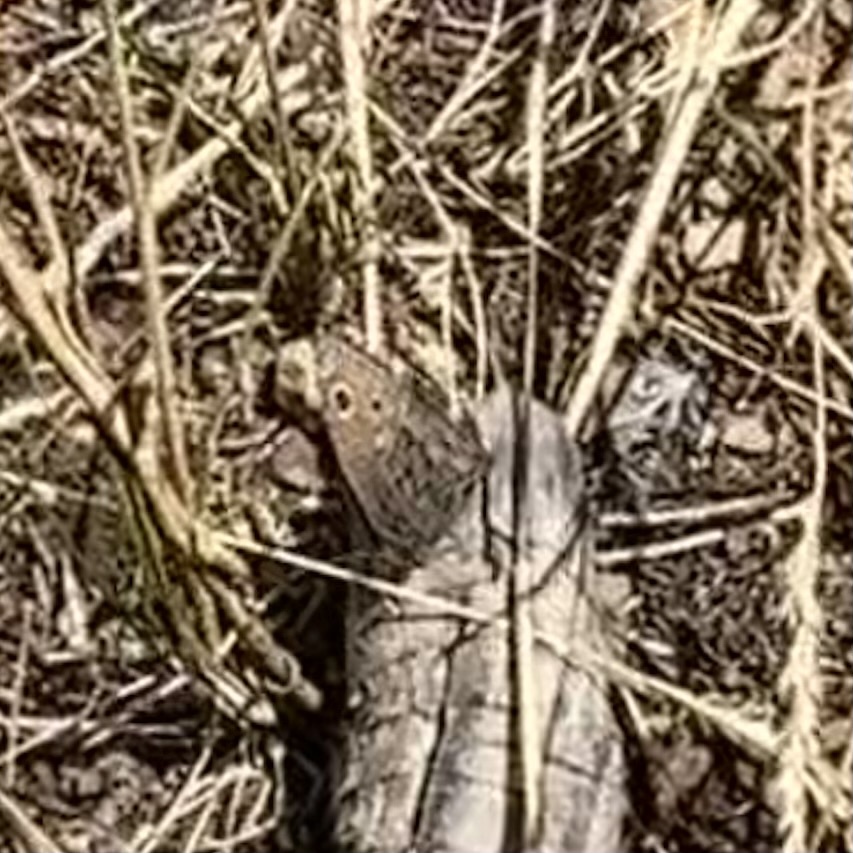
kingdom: Animalia
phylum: Arthropoda
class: Insecta
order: Lepidoptera
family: Nymphalidae
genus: Cercyonis
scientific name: Cercyonis oetus
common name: Small wood-nymph
